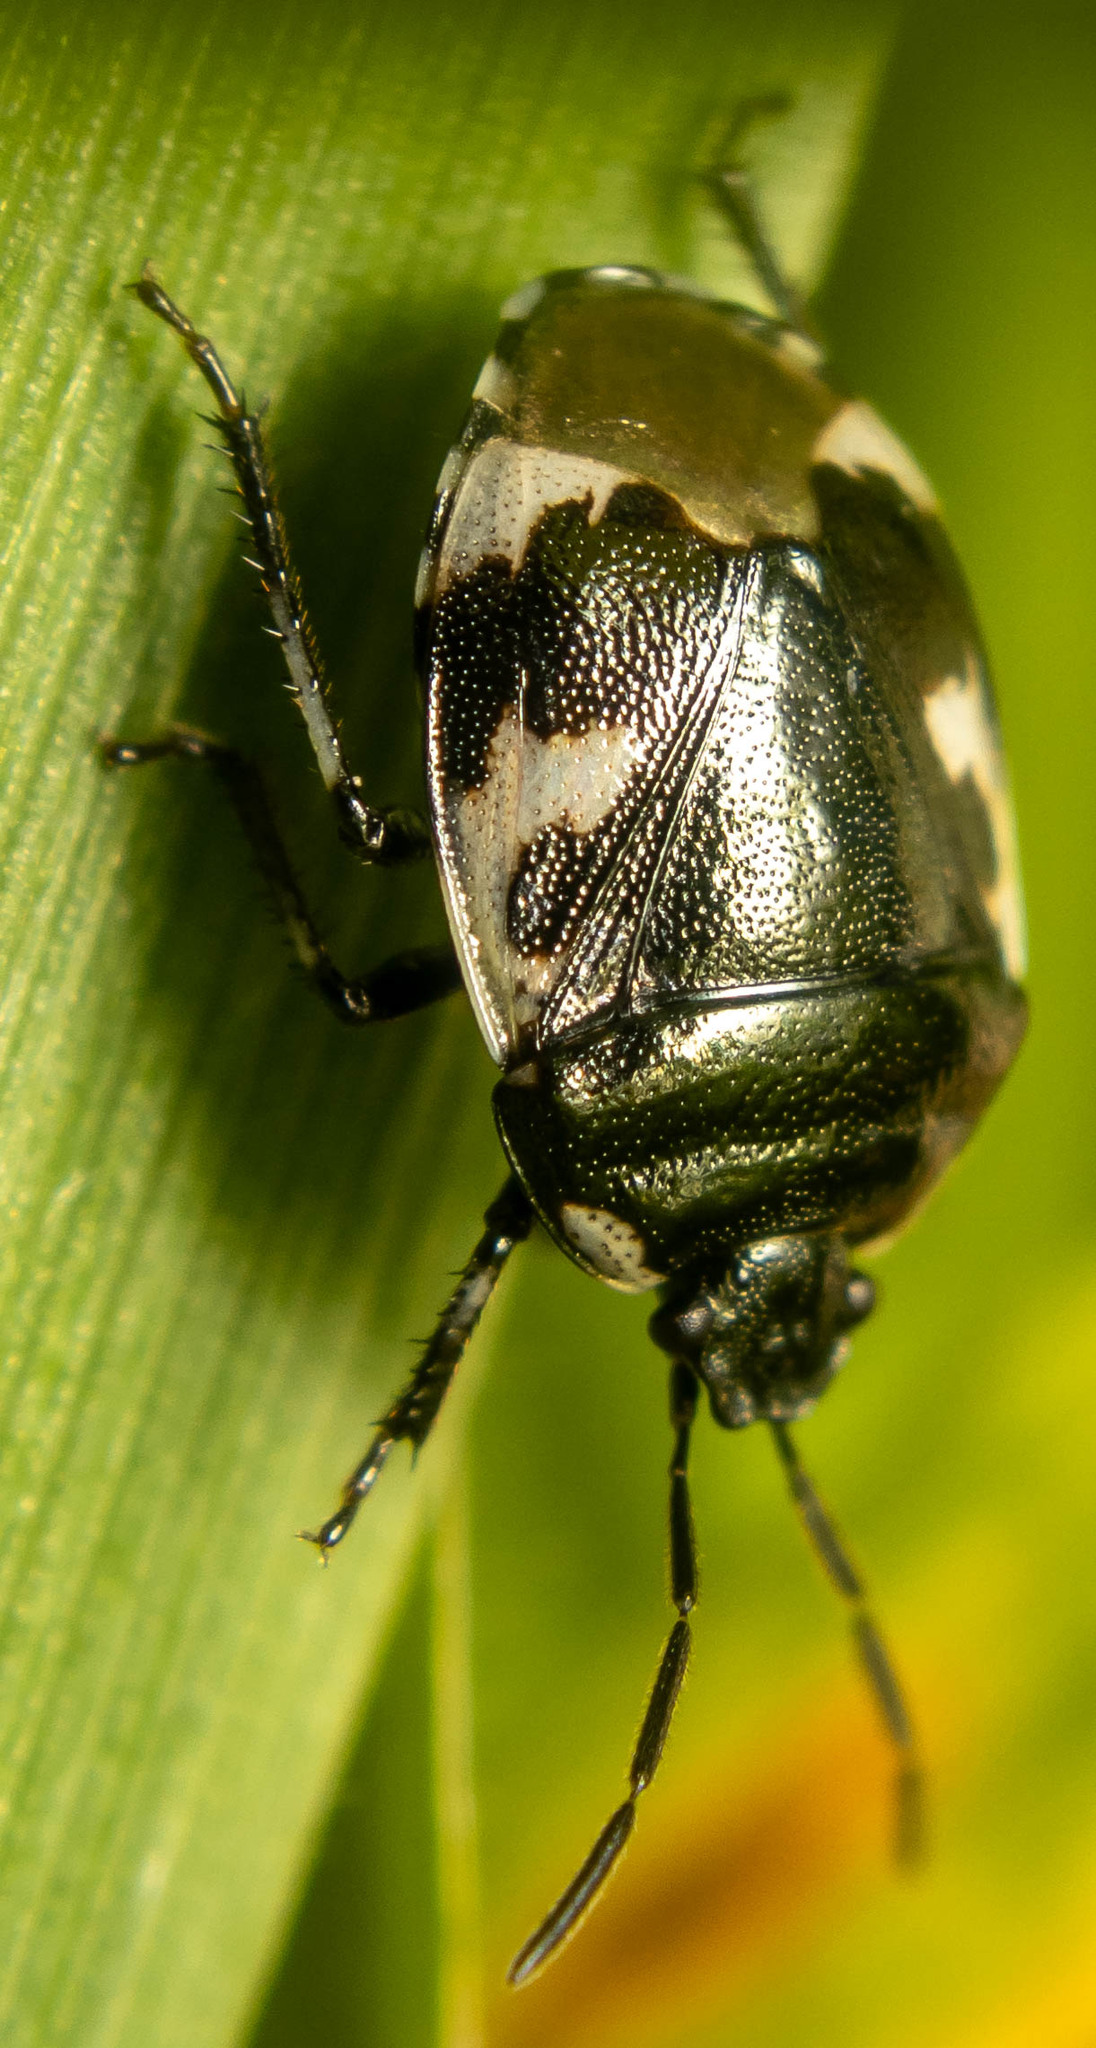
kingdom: Animalia
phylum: Arthropoda
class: Insecta
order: Hemiptera
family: Cydnidae
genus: Tritomegas
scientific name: Tritomegas bicolor
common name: Pied shieldbug
